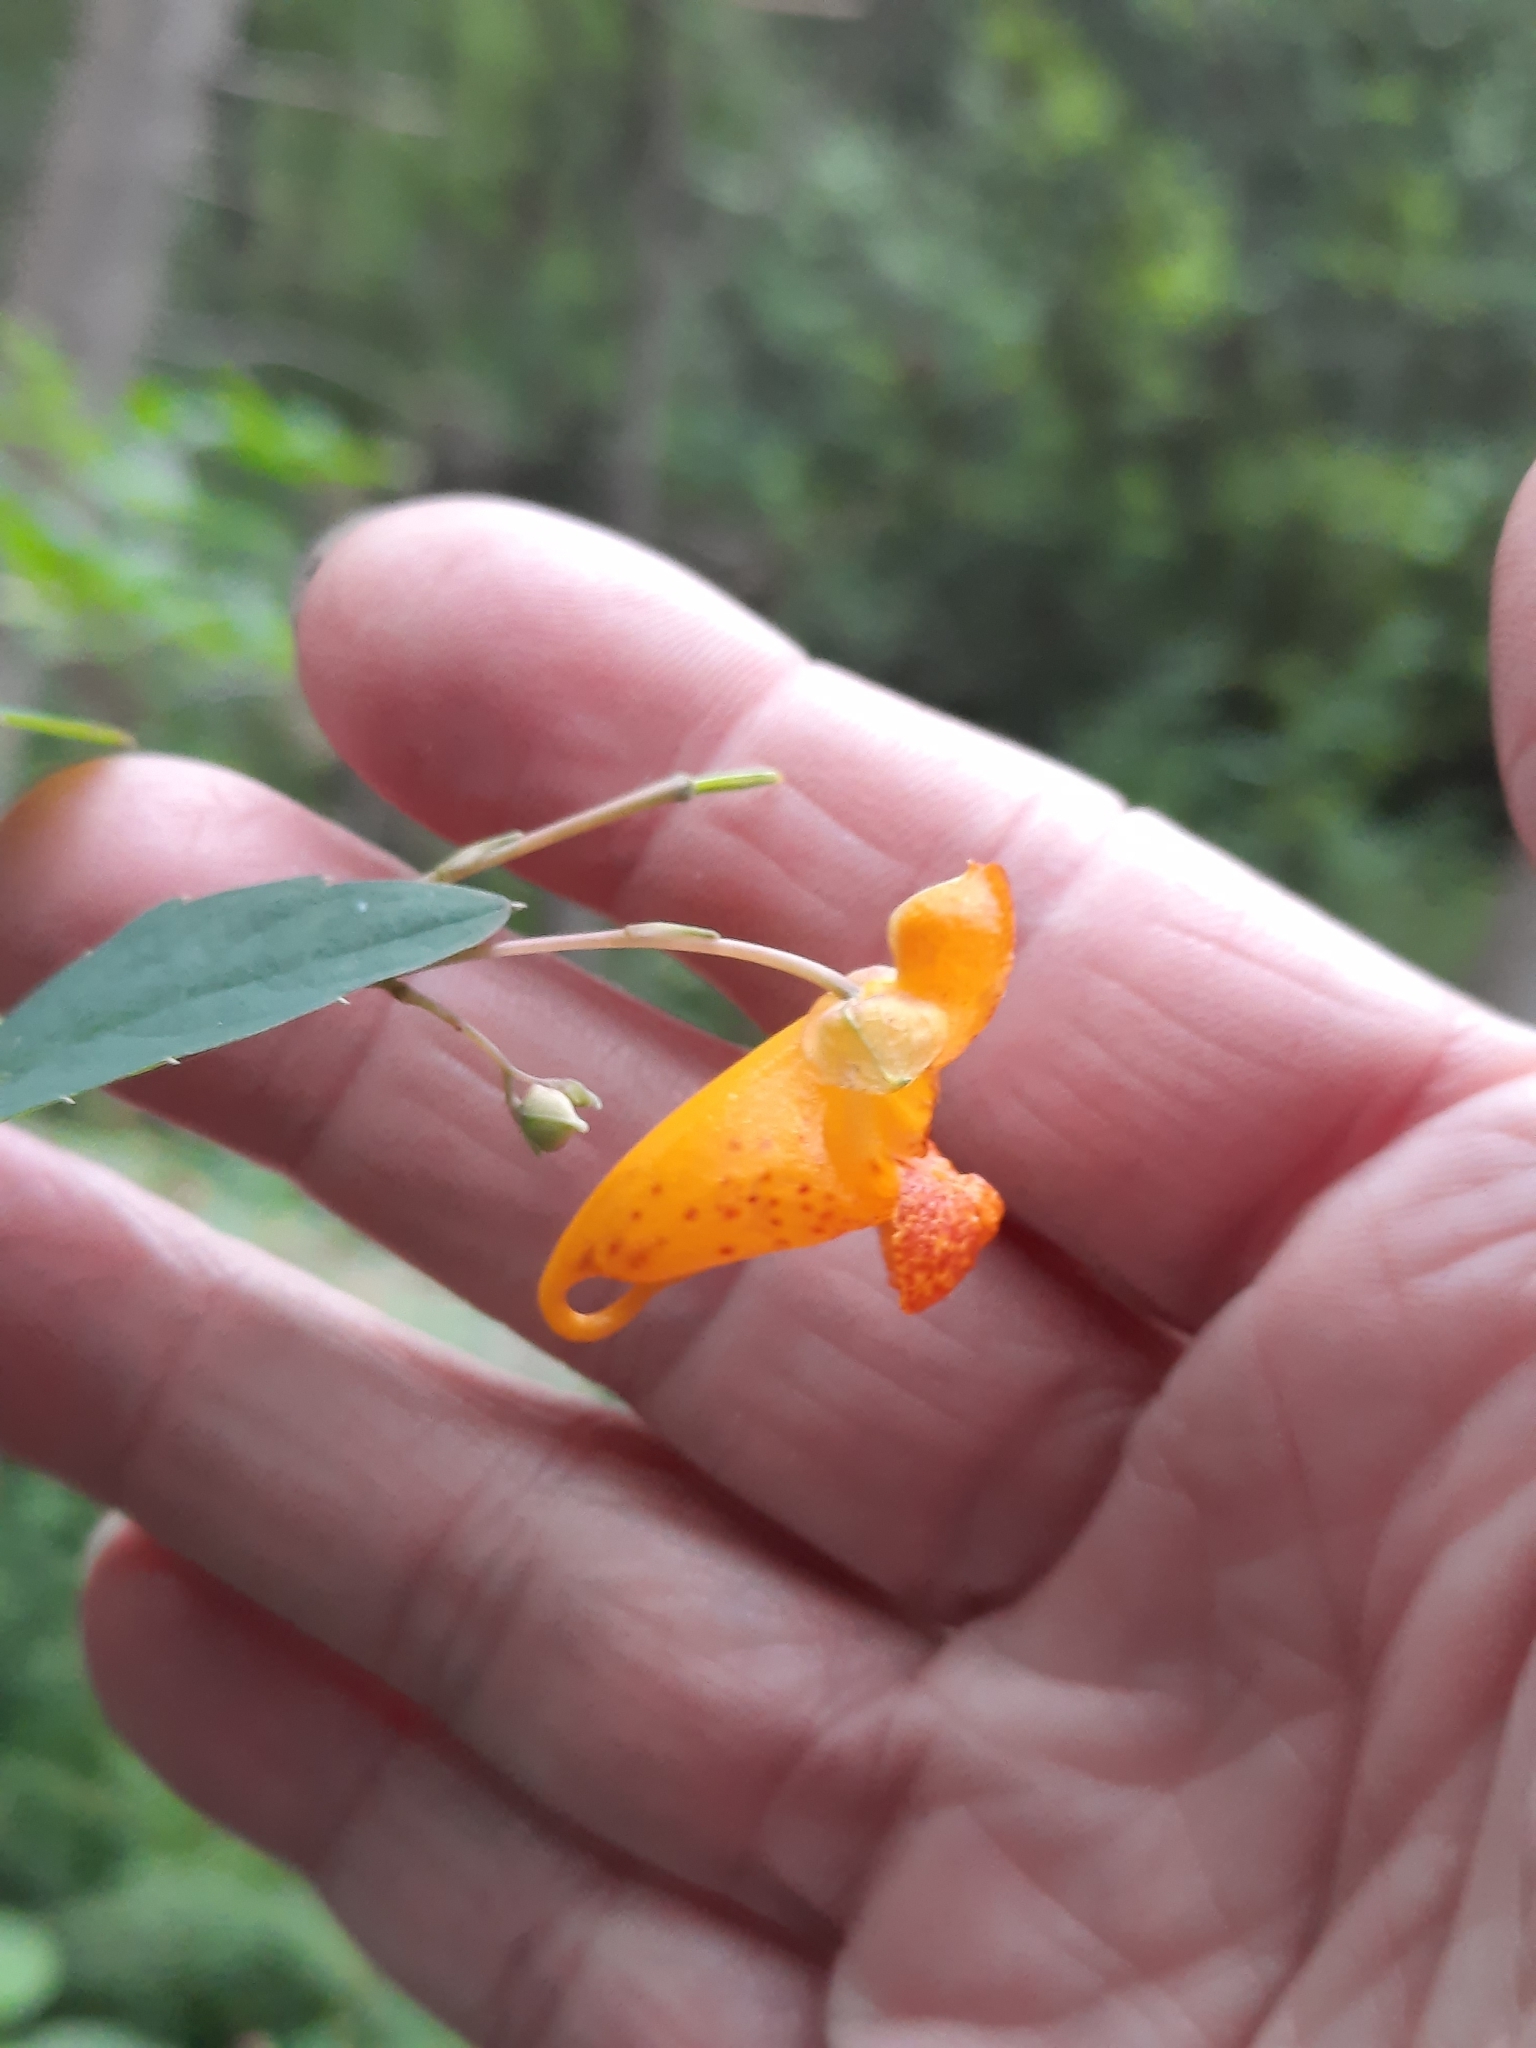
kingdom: Plantae
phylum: Tracheophyta
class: Magnoliopsida
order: Ericales
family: Balsaminaceae
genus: Impatiens
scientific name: Impatiens capensis
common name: Orange balsam
